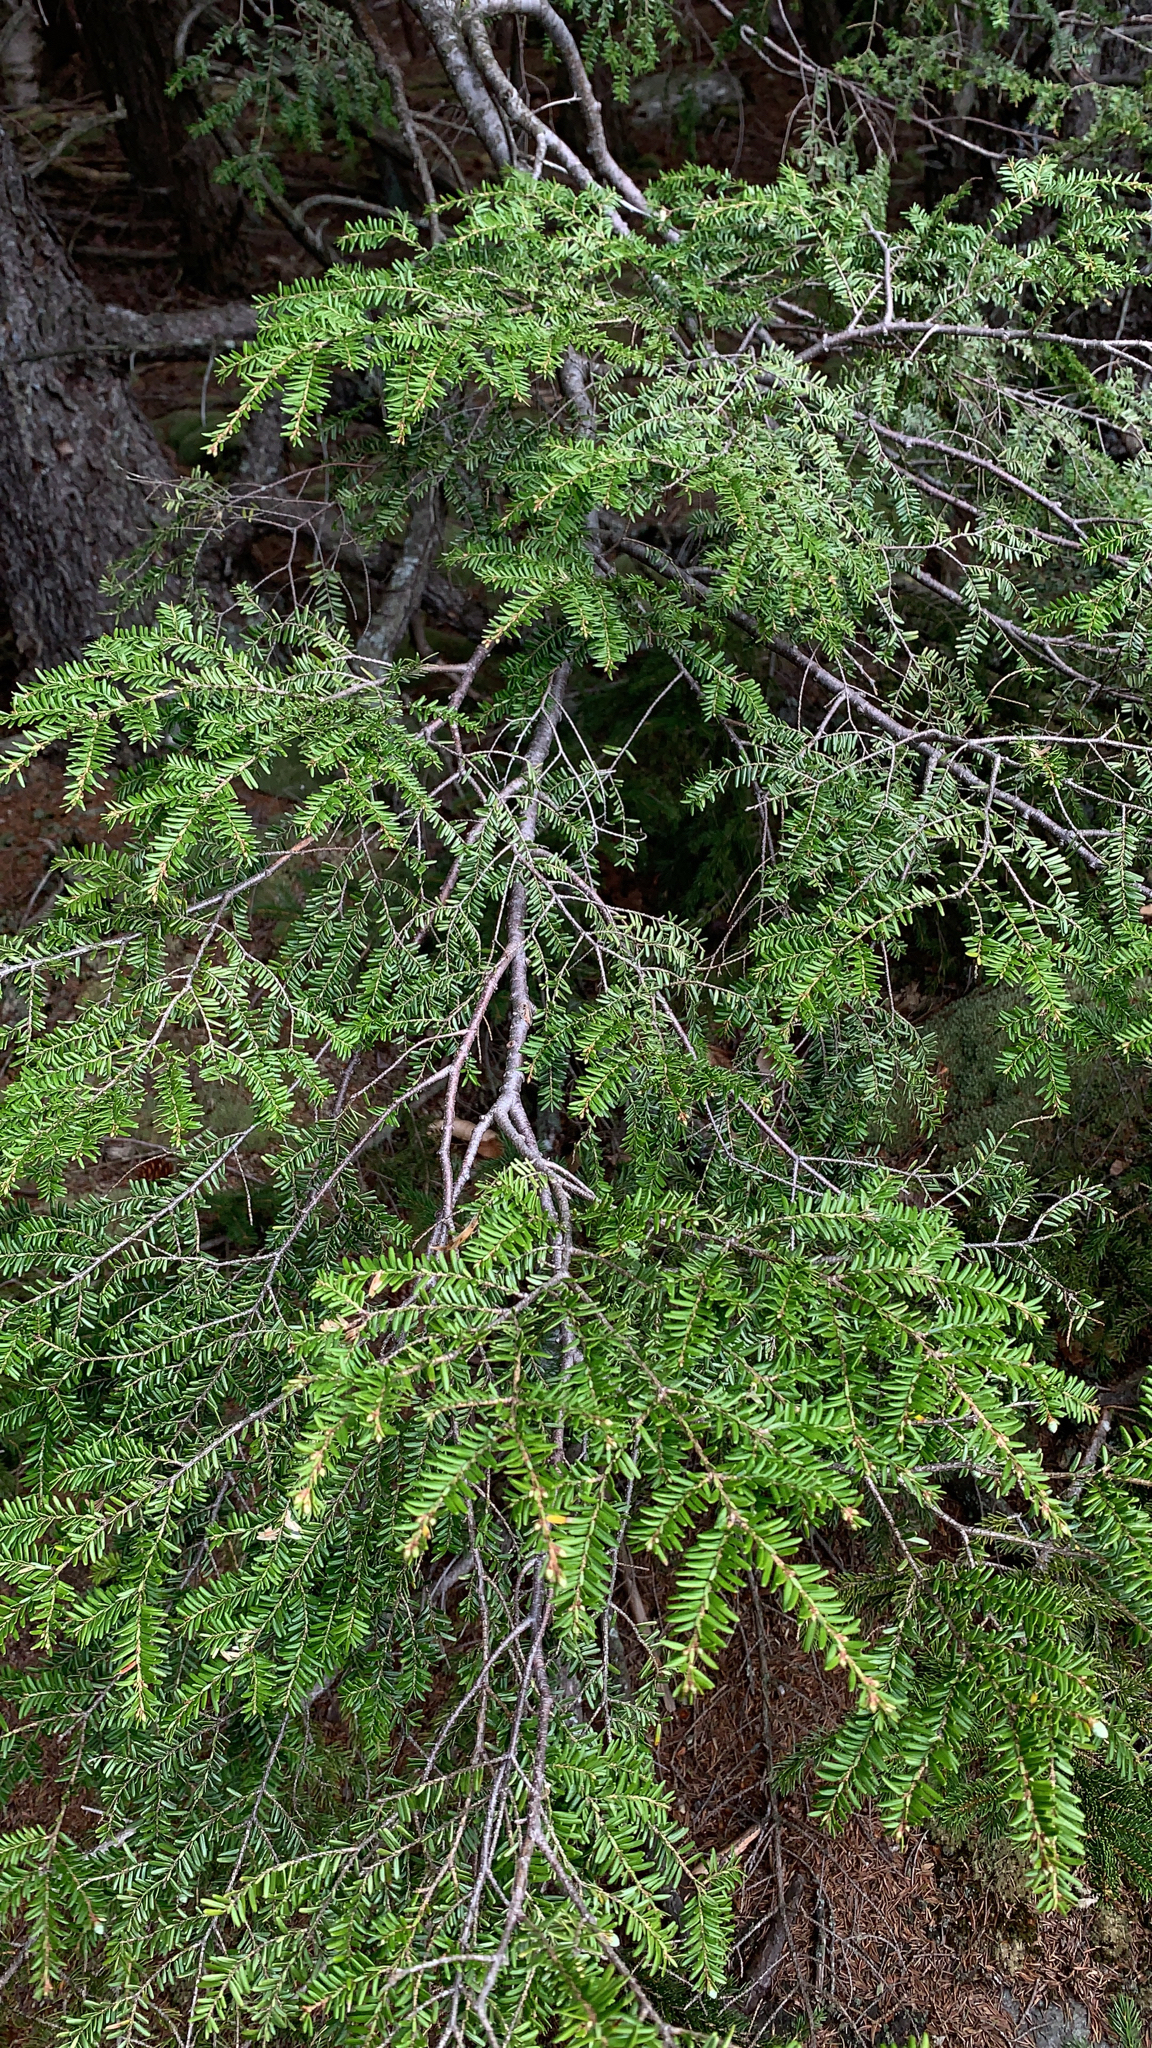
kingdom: Plantae
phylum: Tracheophyta
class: Pinopsida
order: Pinales
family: Pinaceae
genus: Tsuga
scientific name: Tsuga canadensis
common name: Eastern hemlock
